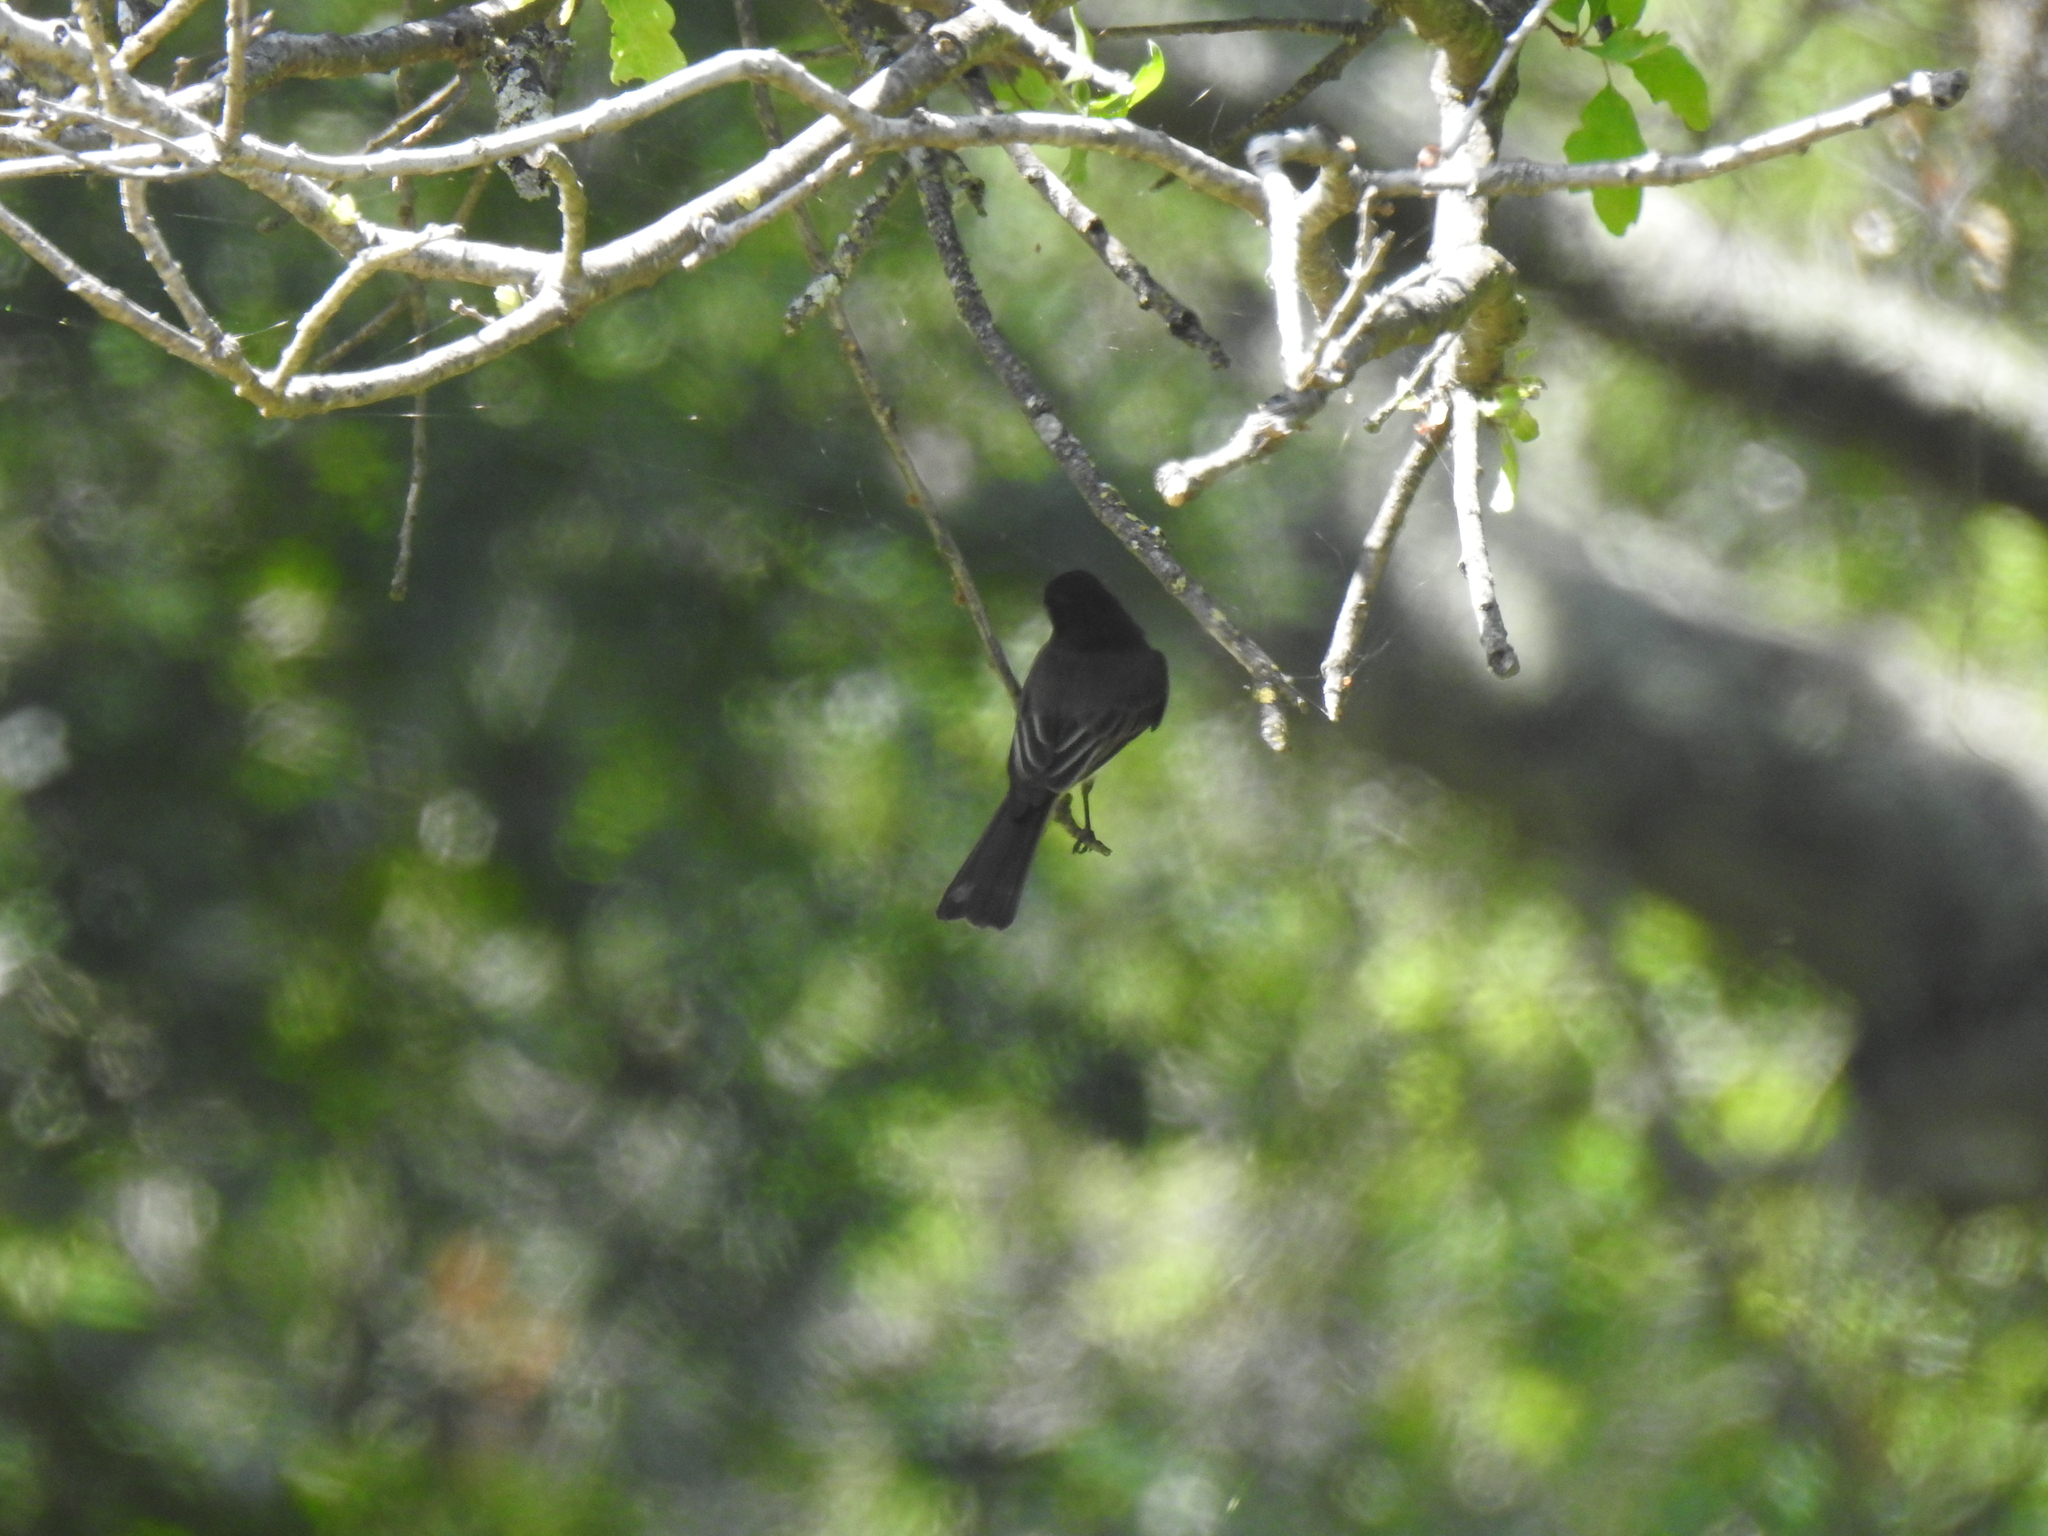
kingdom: Animalia
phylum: Chordata
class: Aves
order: Passeriformes
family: Tyrannidae
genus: Sayornis
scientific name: Sayornis nigricans
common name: Black phoebe
